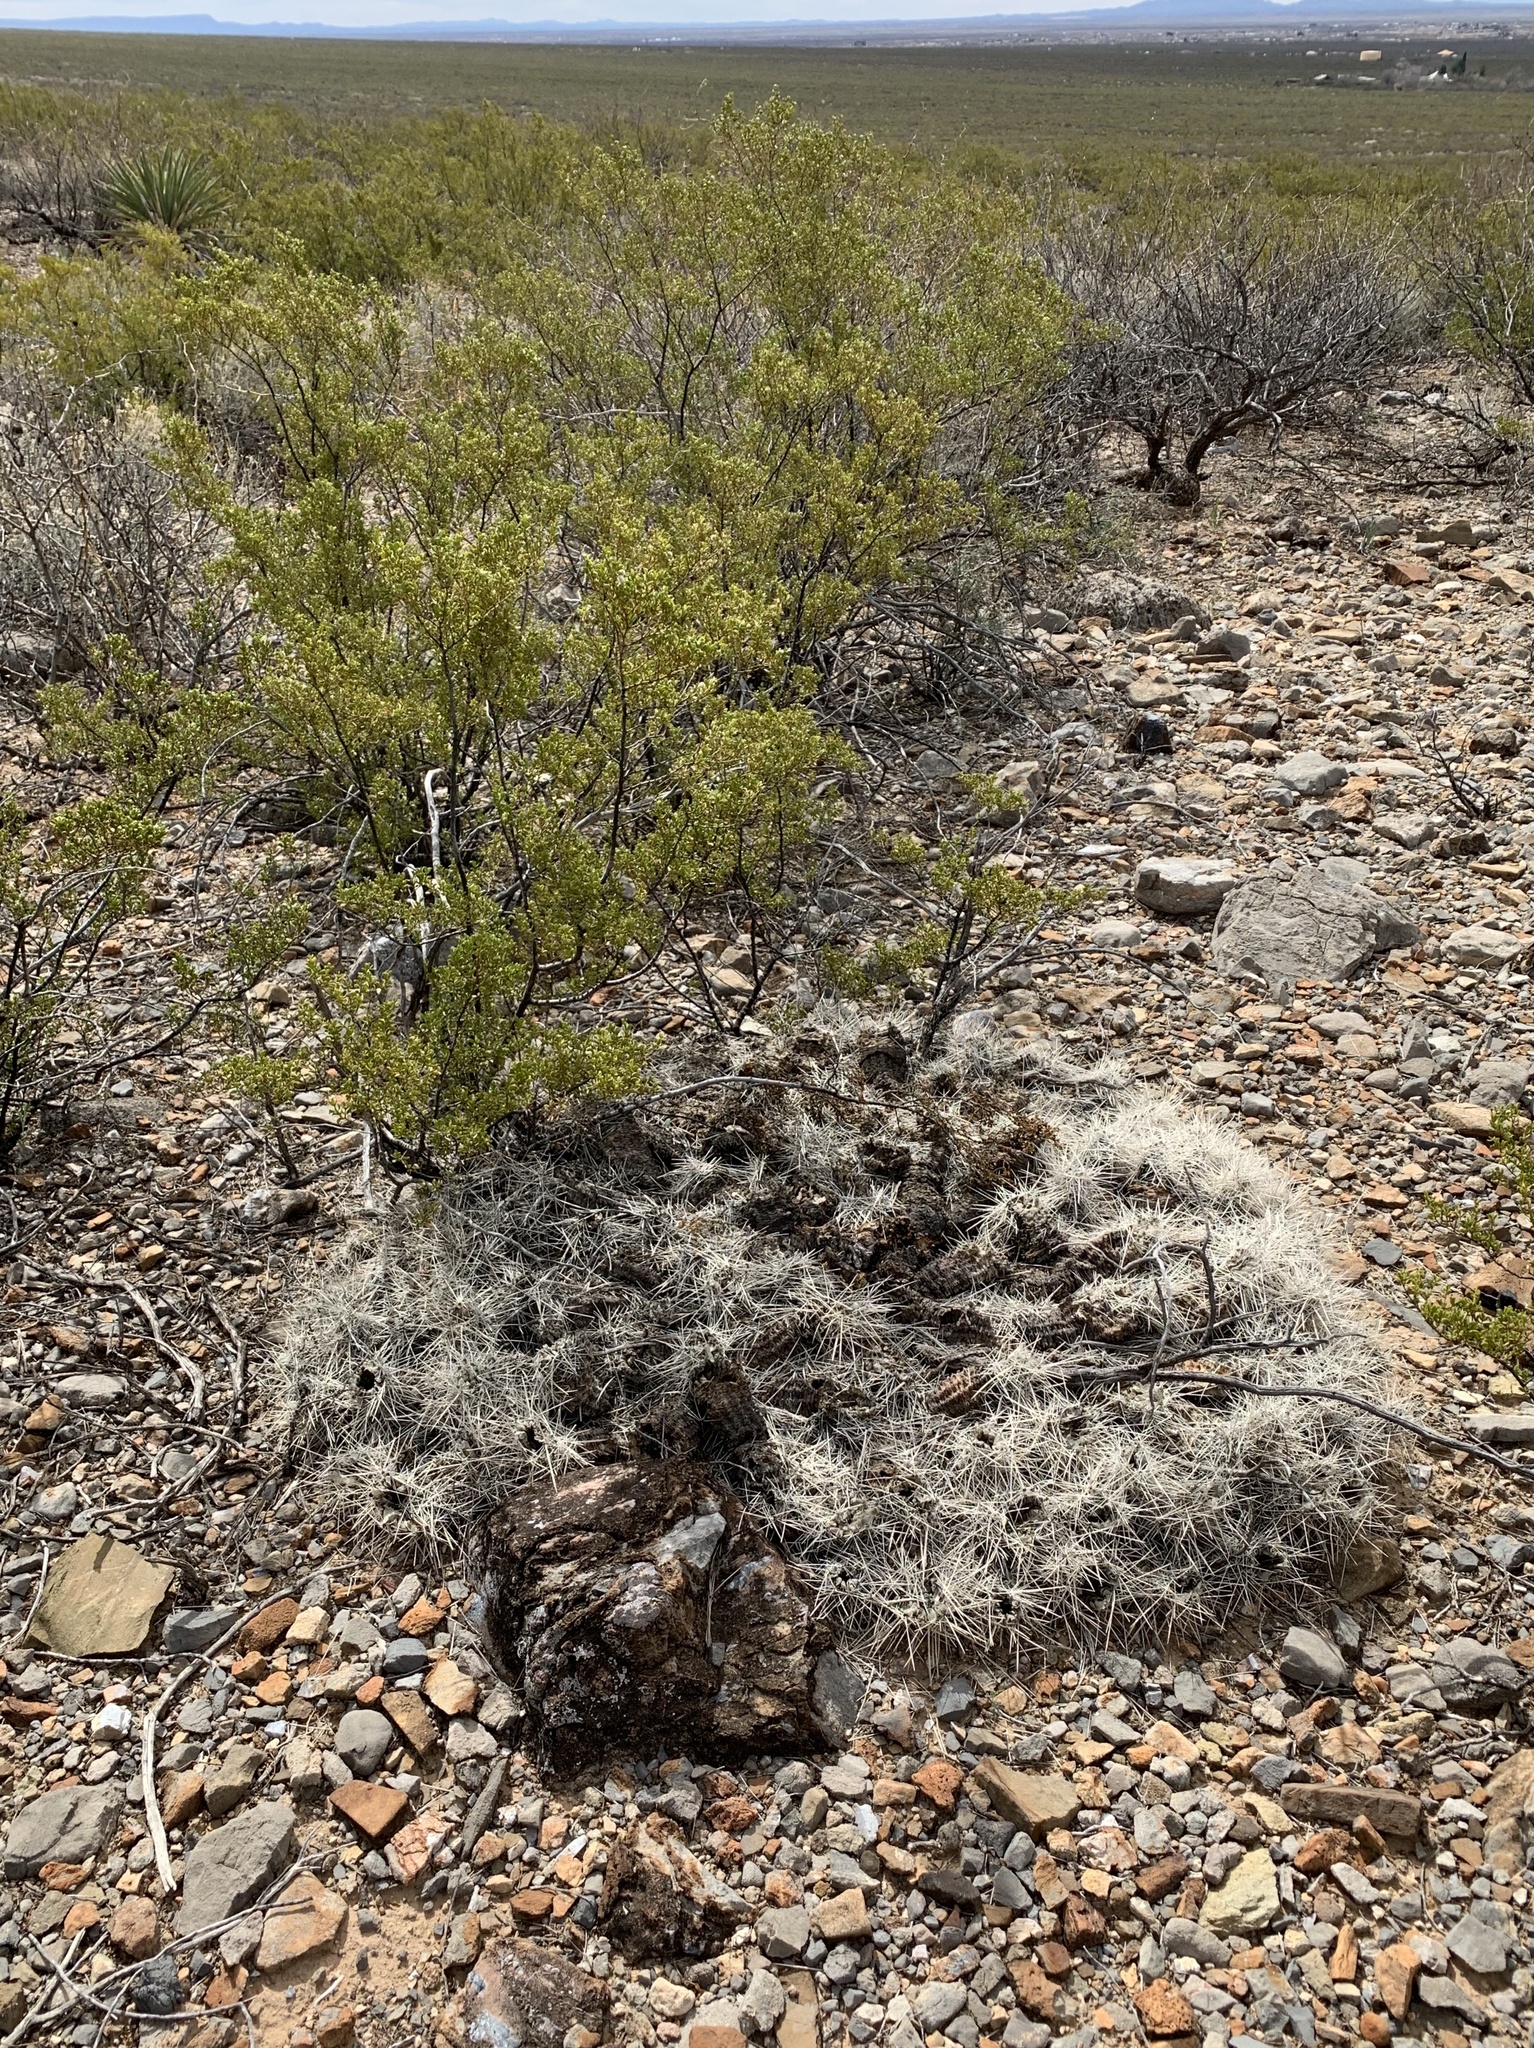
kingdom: Plantae
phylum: Tracheophyta
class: Magnoliopsida
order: Caryophyllales
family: Cactaceae
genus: Echinocereus
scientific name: Echinocereus stramineus
